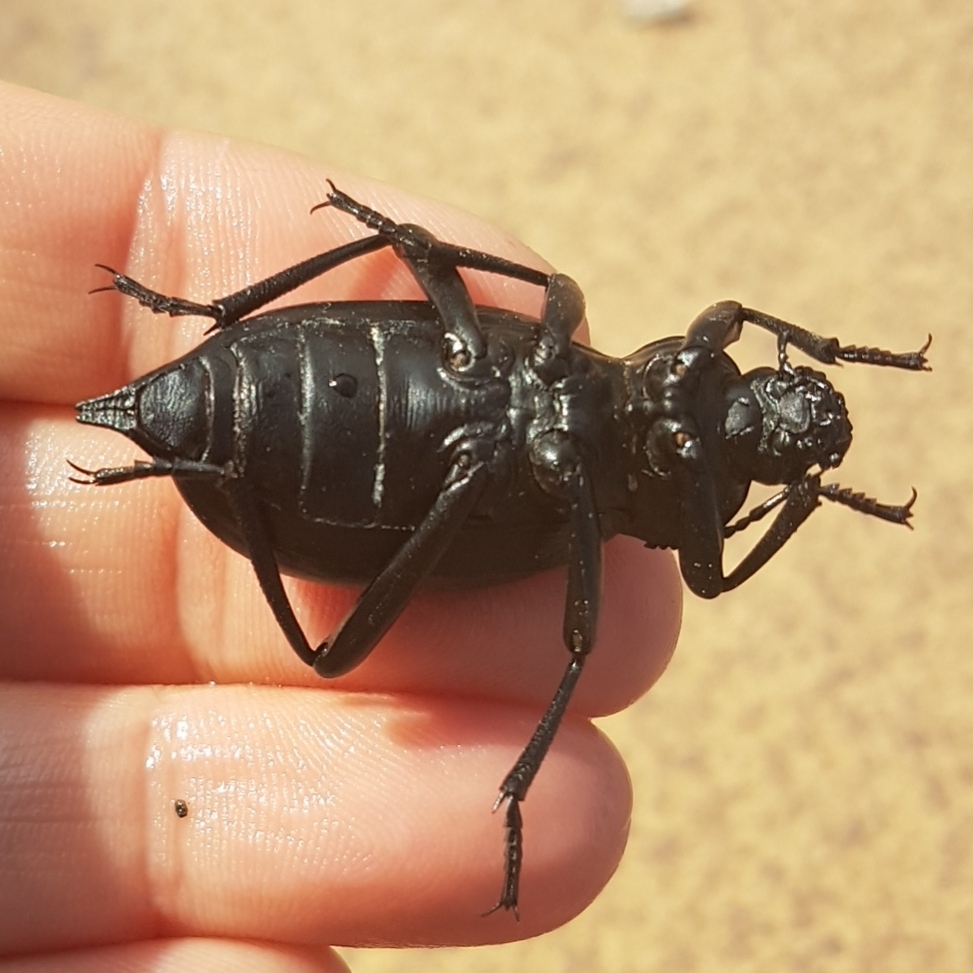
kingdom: Animalia
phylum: Arthropoda
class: Insecta
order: Coleoptera
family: Tenebrionidae
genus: Blaps
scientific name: Blaps lusitanica
